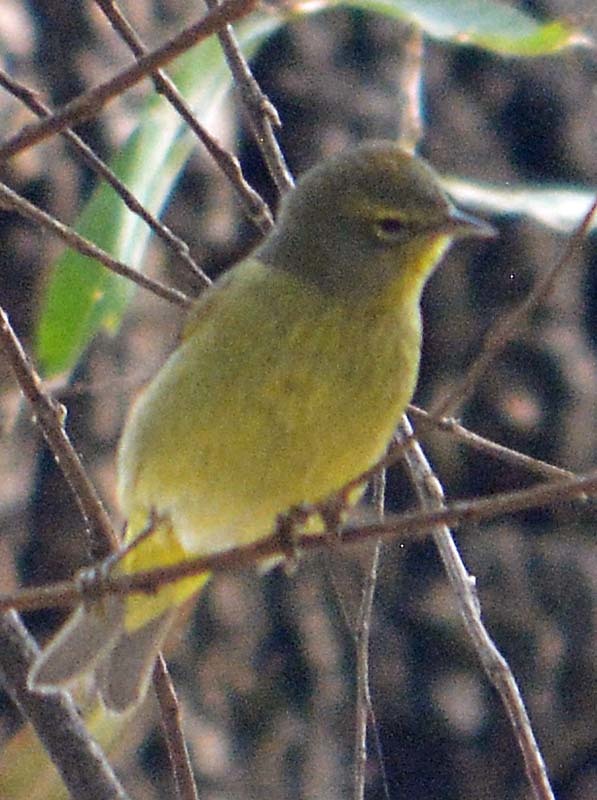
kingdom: Animalia
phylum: Chordata
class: Aves
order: Passeriformes
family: Parulidae
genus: Leiothlypis
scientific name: Leiothlypis celata
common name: Orange-crowned warbler
